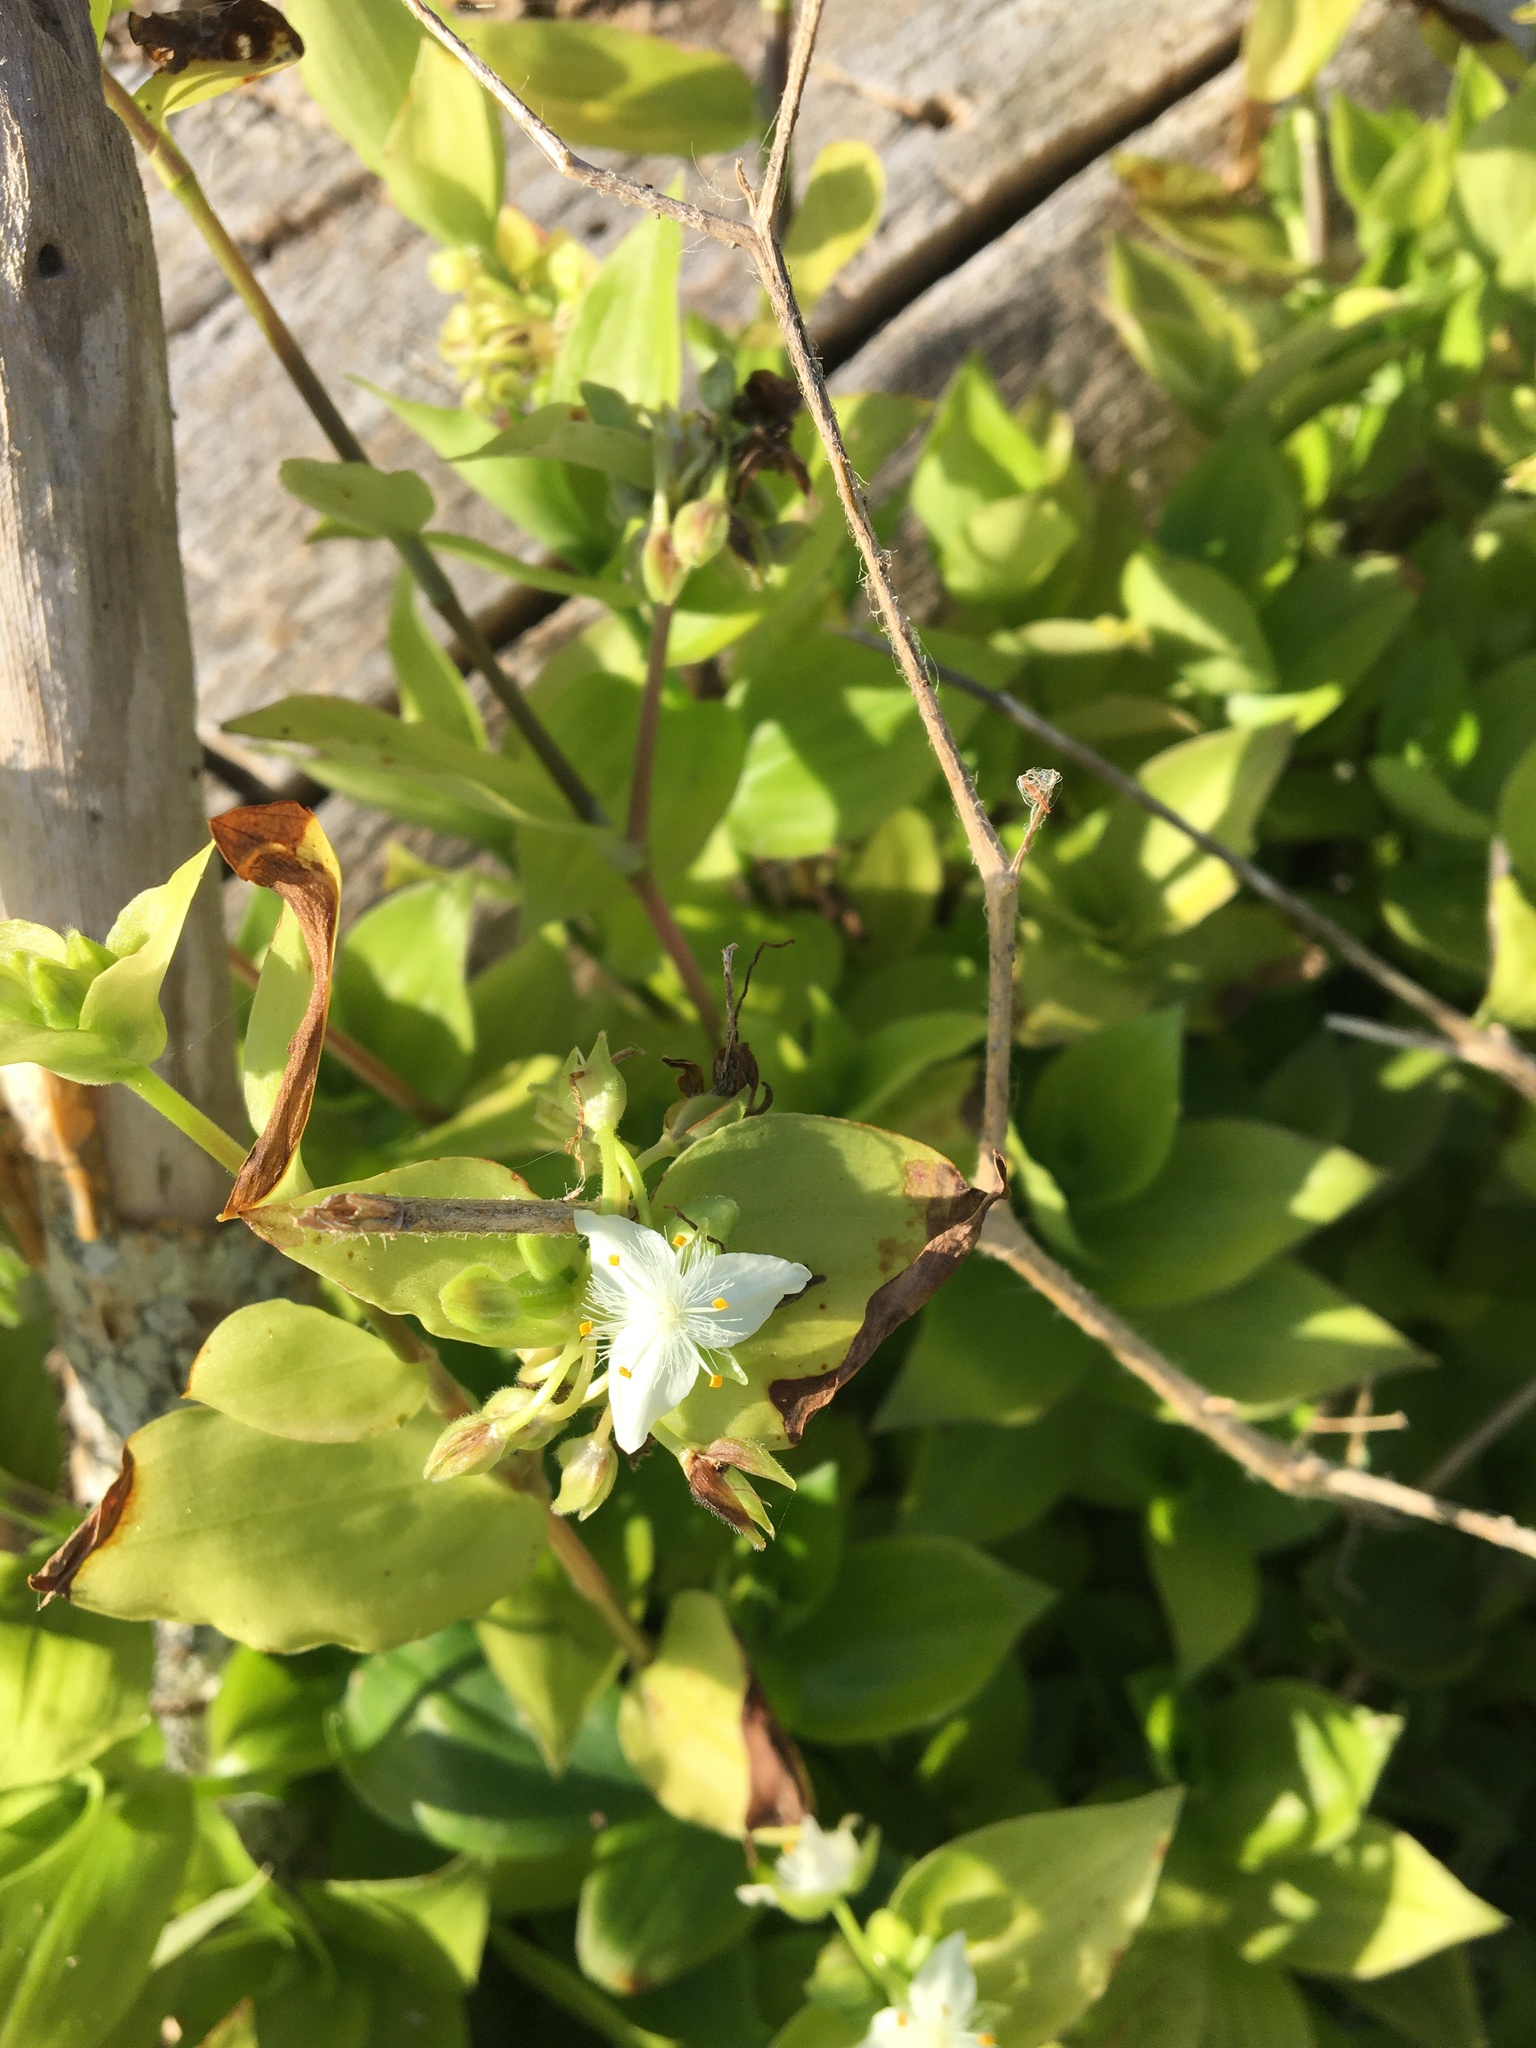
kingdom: Plantae
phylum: Tracheophyta
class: Liliopsida
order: Commelinales
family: Commelinaceae
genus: Tradescantia
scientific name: Tradescantia fluminensis
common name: Wandering-jew
